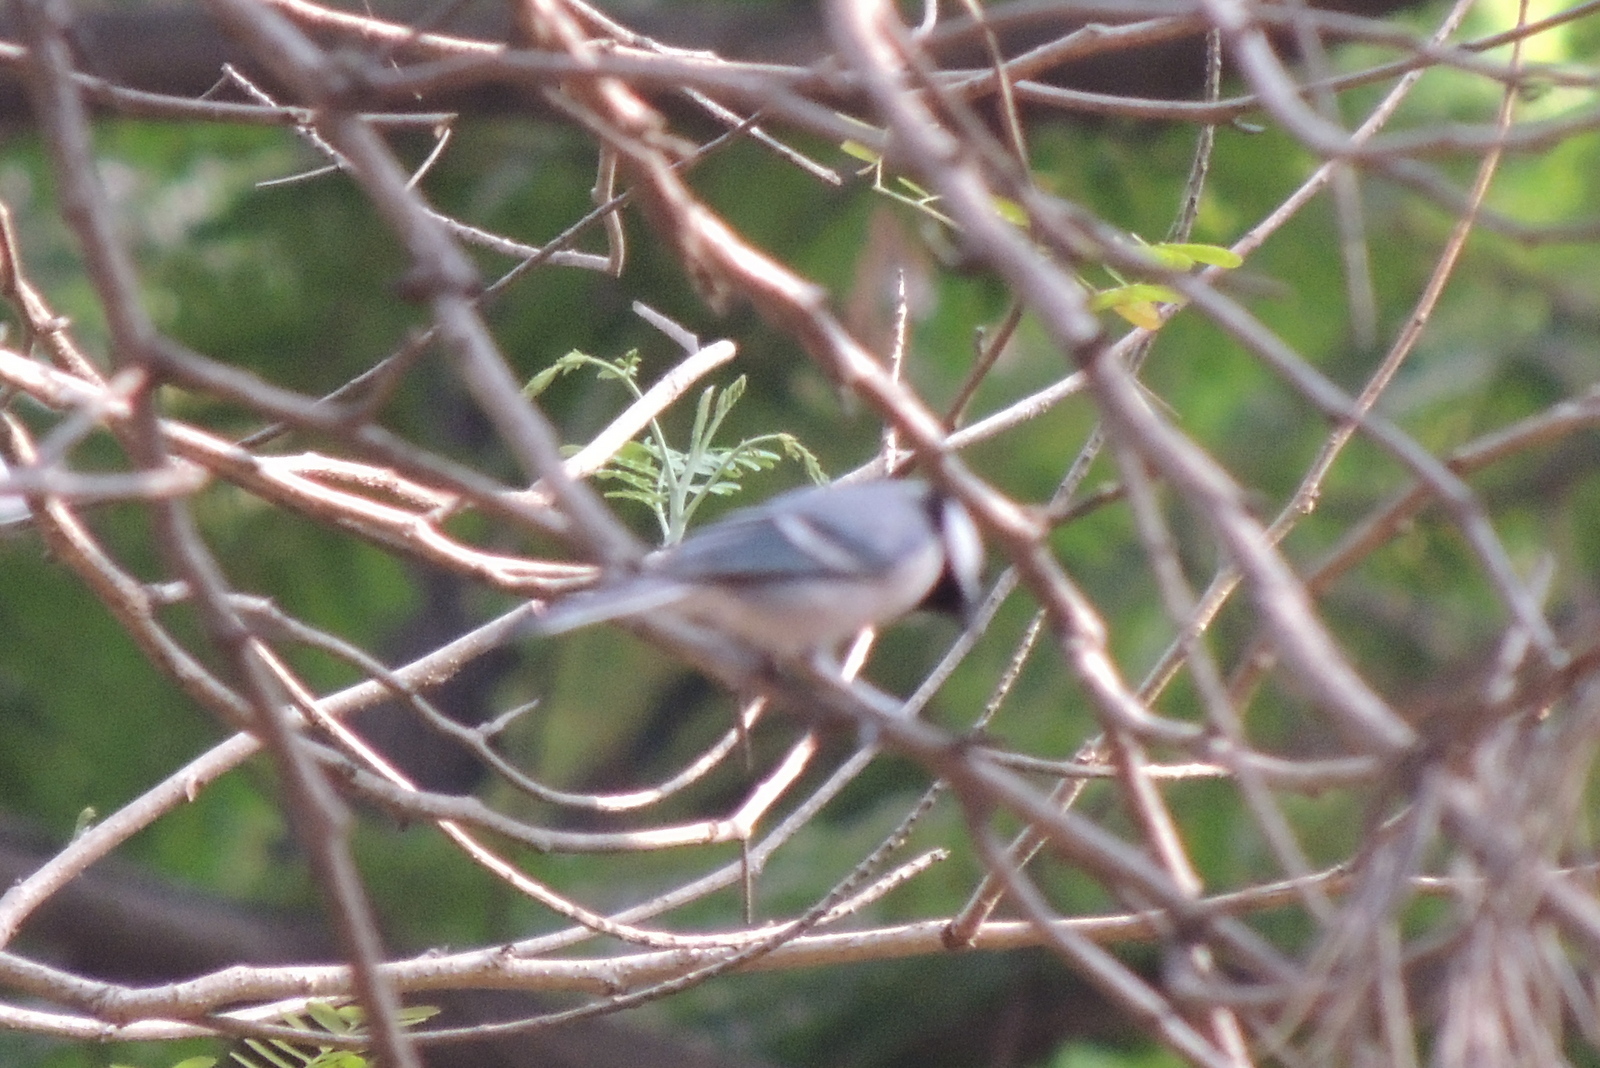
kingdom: Animalia
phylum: Chordata
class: Aves
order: Passeriformes
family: Paridae
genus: Parus
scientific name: Parus cinereus
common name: Cinereous tit
